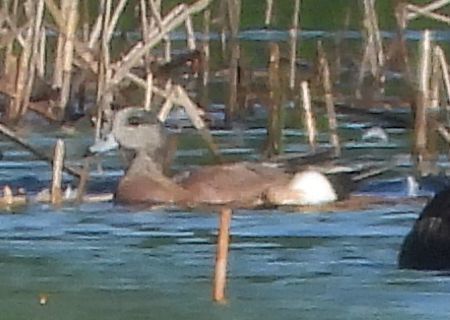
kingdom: Animalia
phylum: Chordata
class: Aves
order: Anseriformes
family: Anatidae
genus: Mareca
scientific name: Mareca americana
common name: American wigeon
